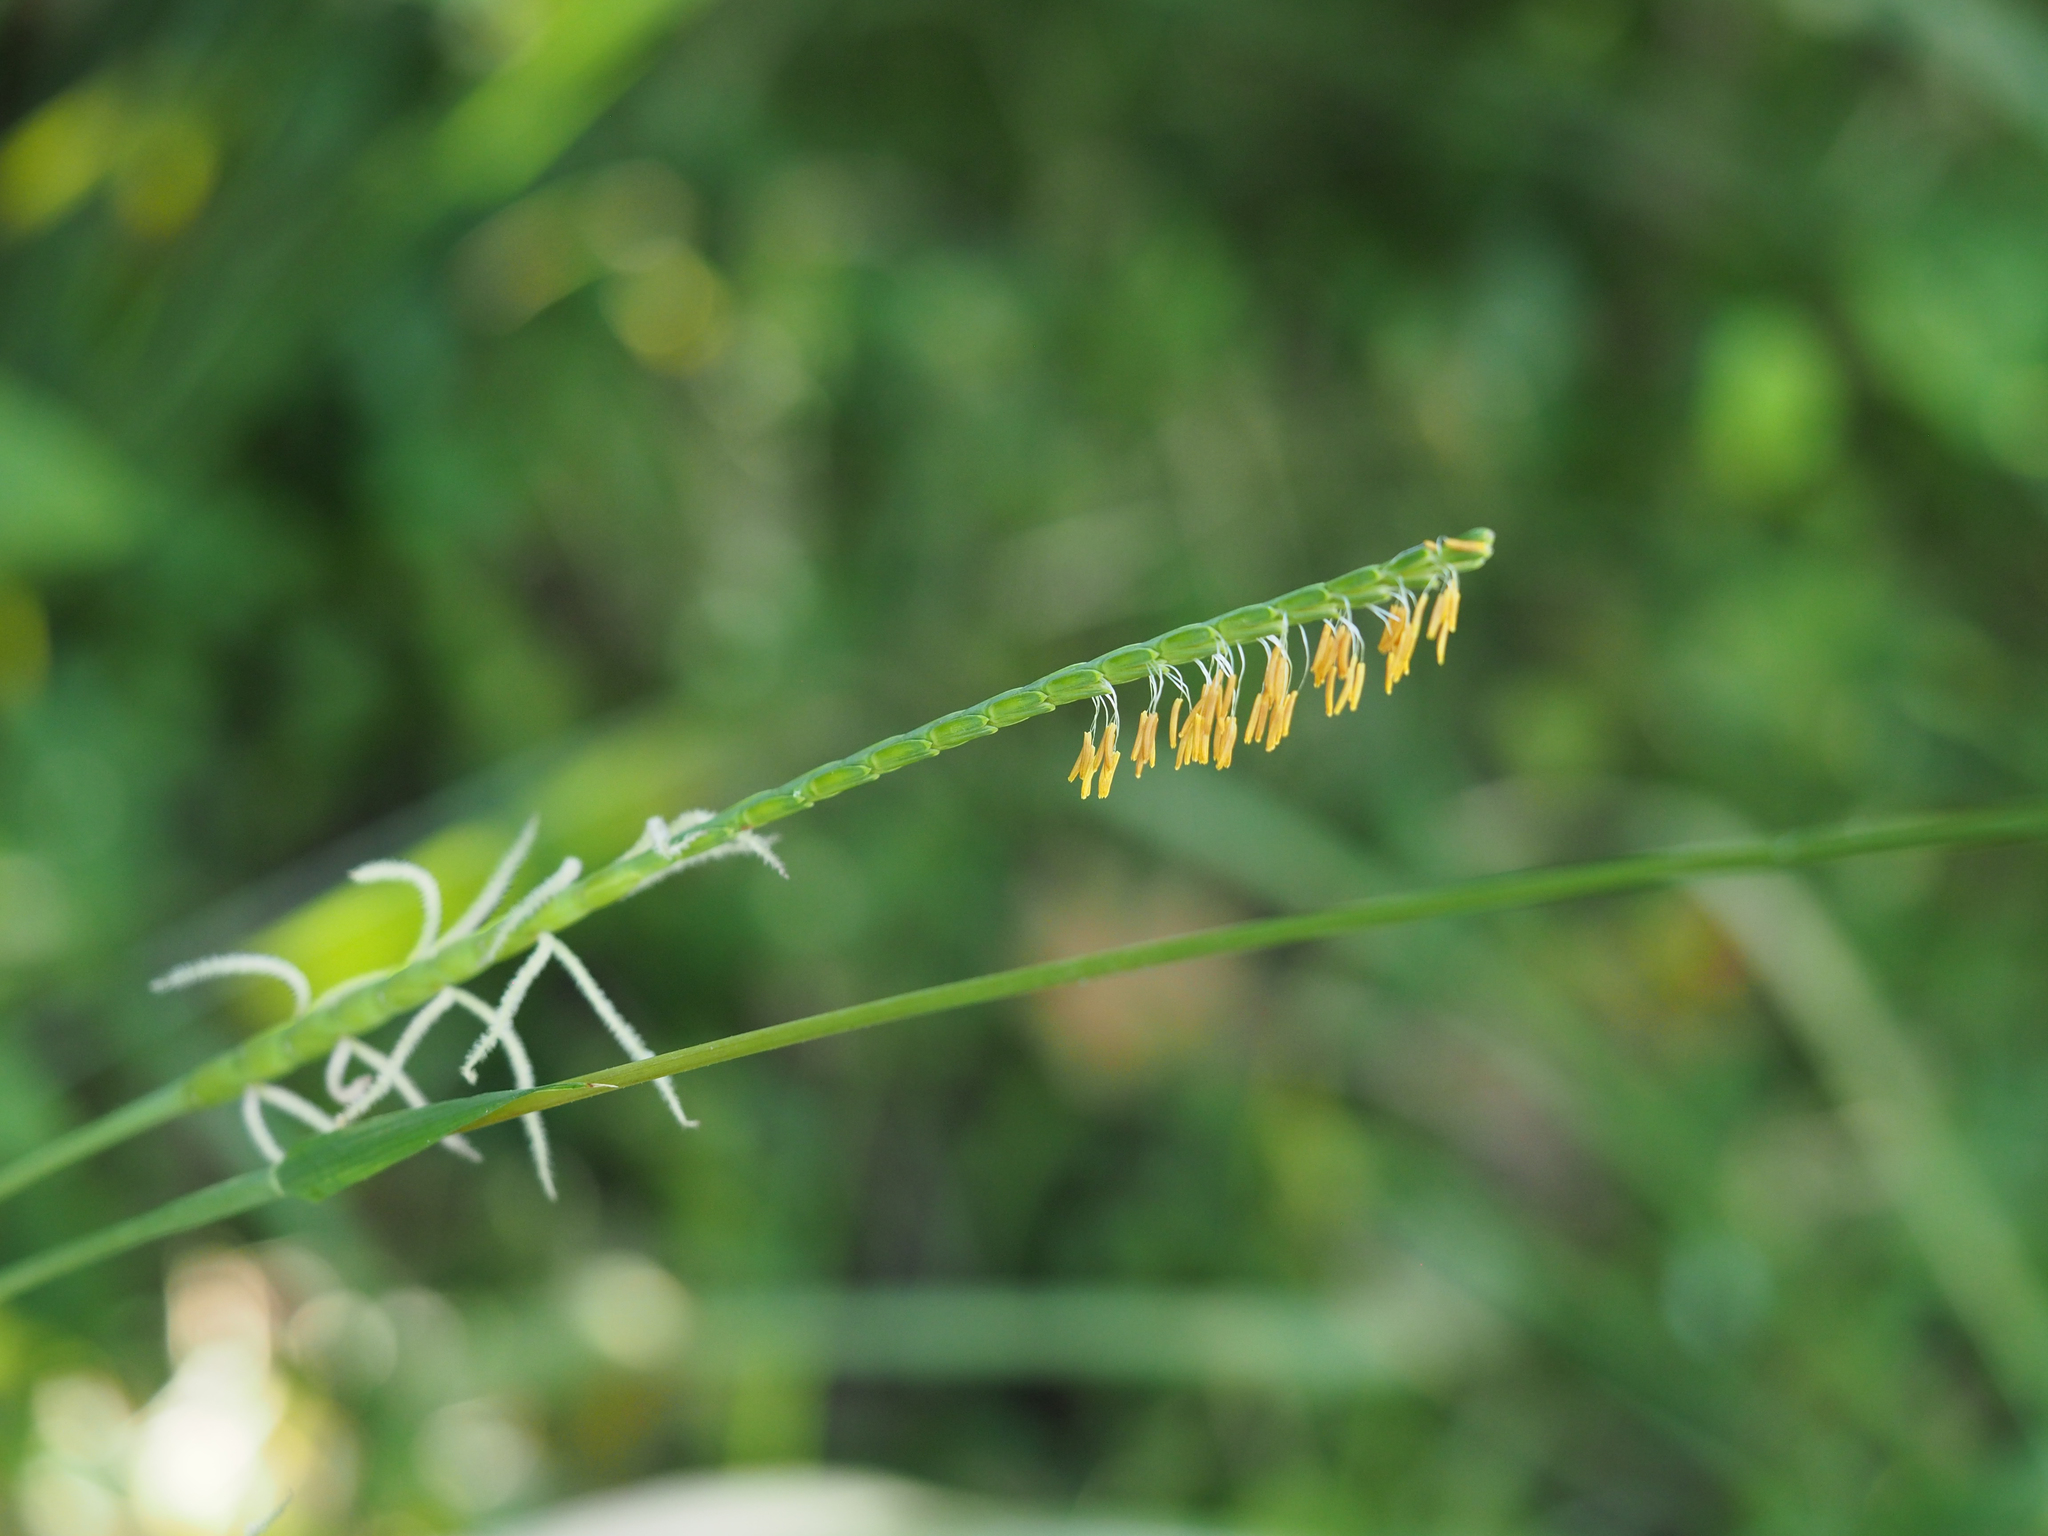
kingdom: Plantae
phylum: Tracheophyta
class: Liliopsida
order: Poales
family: Poaceae
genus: Tripsacum
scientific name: Tripsacum dactyloides
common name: Buffalo-grass
